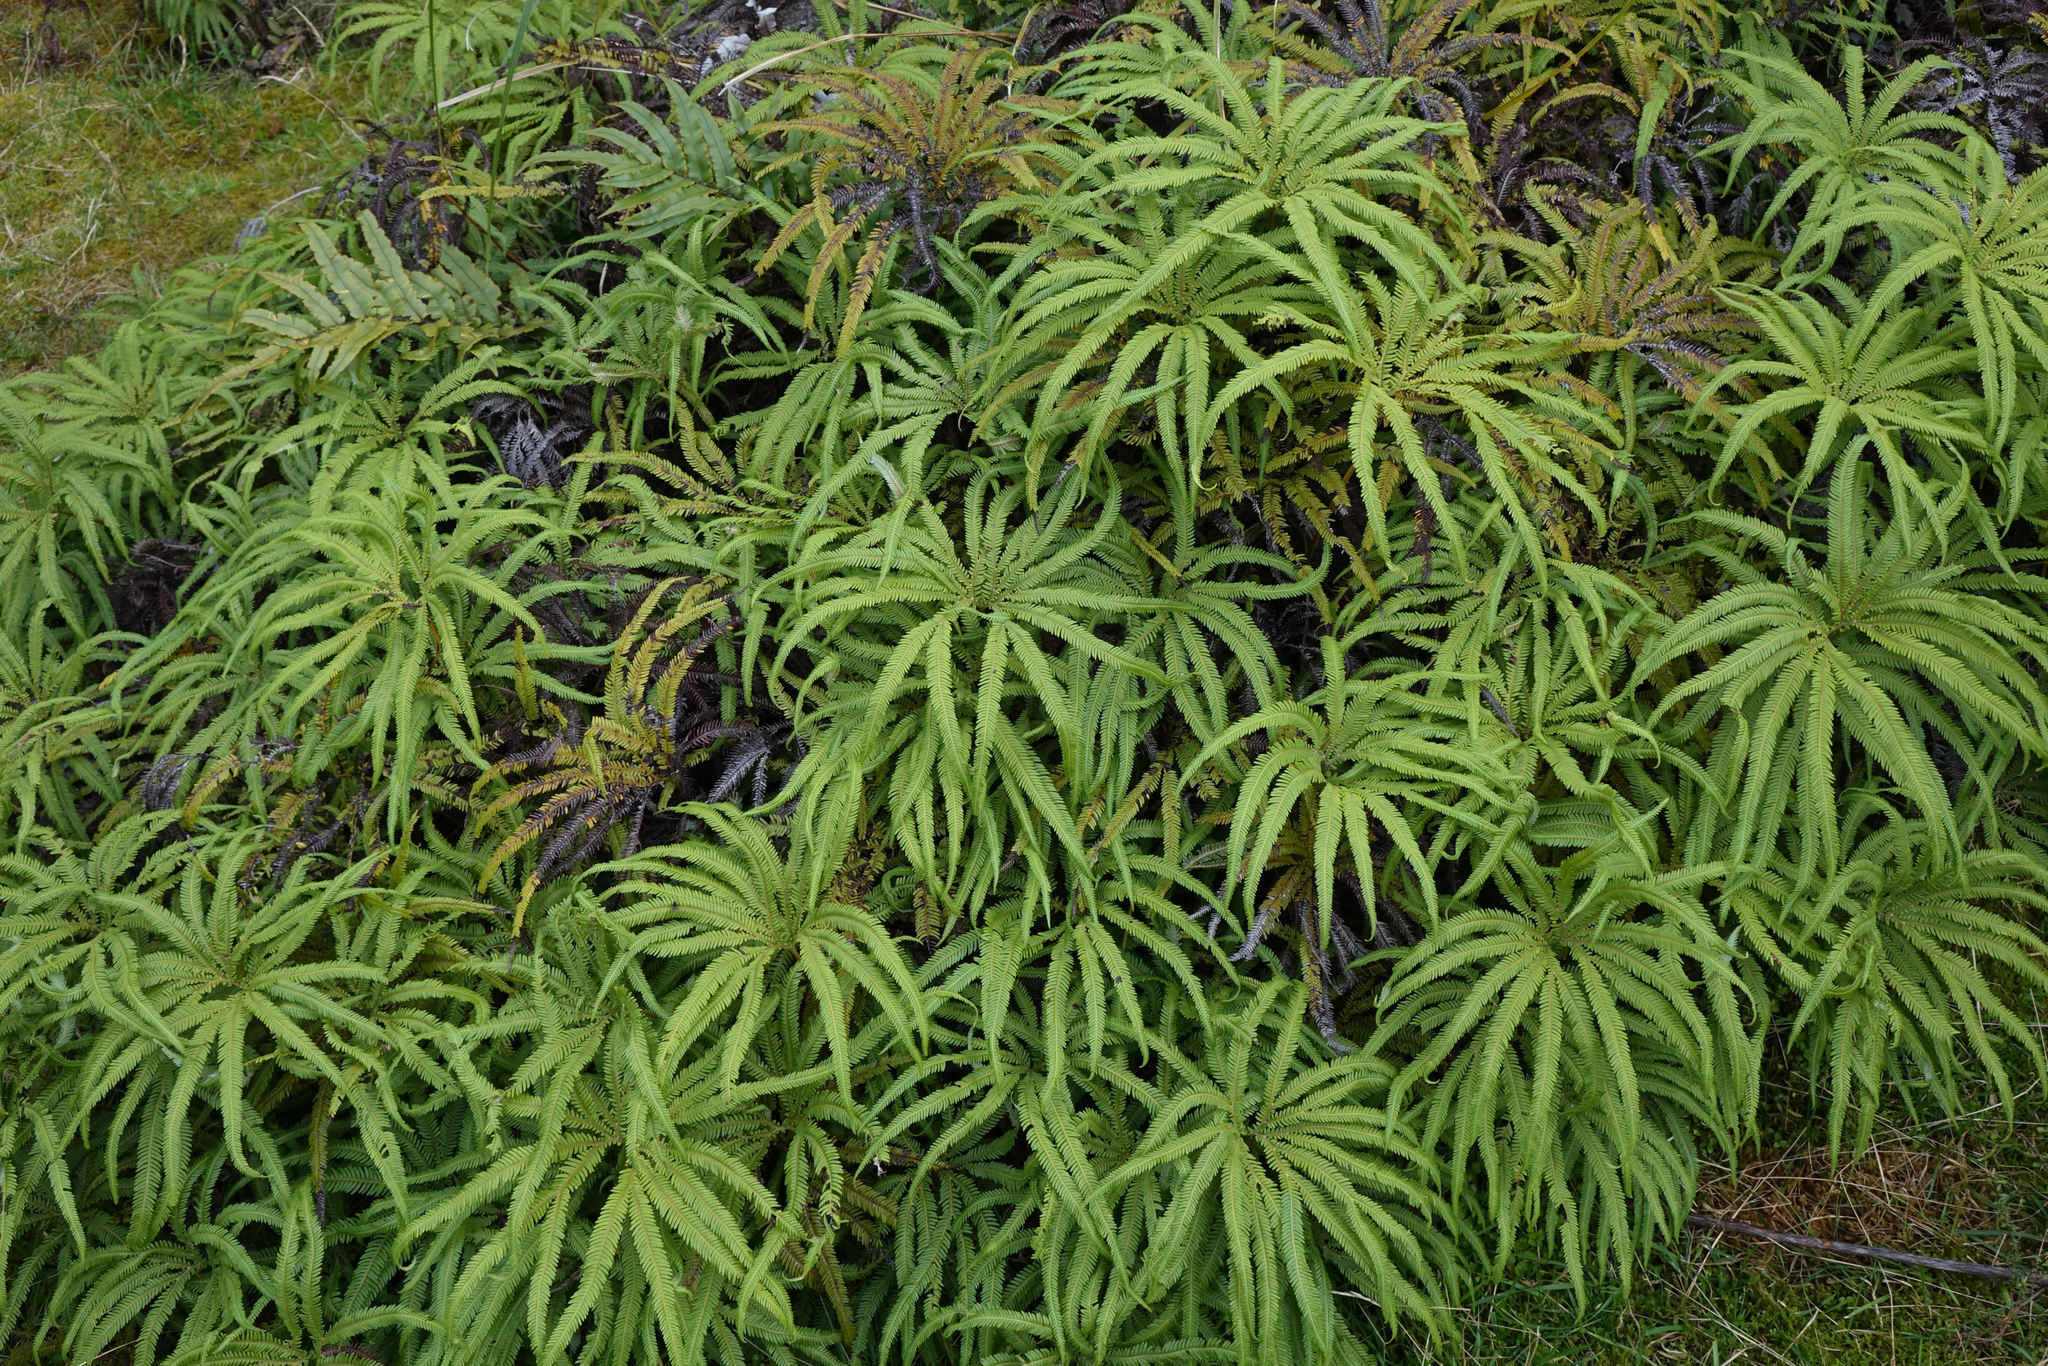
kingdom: Plantae
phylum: Tracheophyta
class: Polypodiopsida
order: Gleicheniales
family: Gleicheniaceae
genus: Sticherus
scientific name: Sticherus cunninghamii
